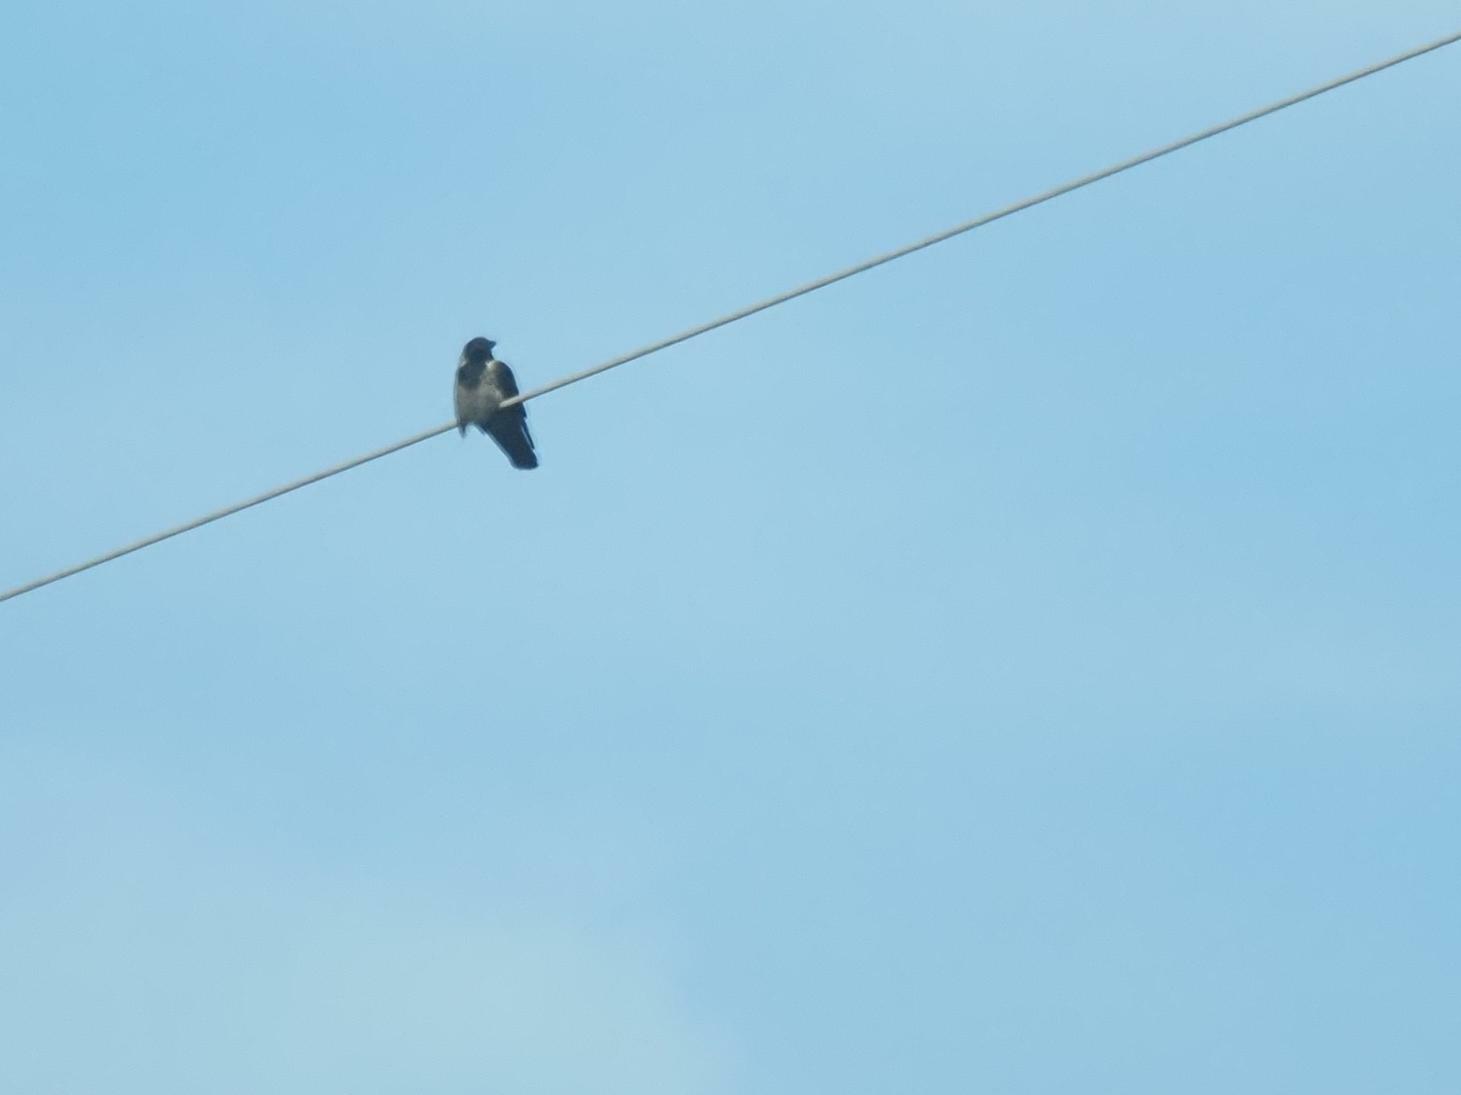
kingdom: Animalia
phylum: Chordata
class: Aves
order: Passeriformes
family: Corvidae
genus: Corvus
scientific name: Corvus cornix
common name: Hooded crow
